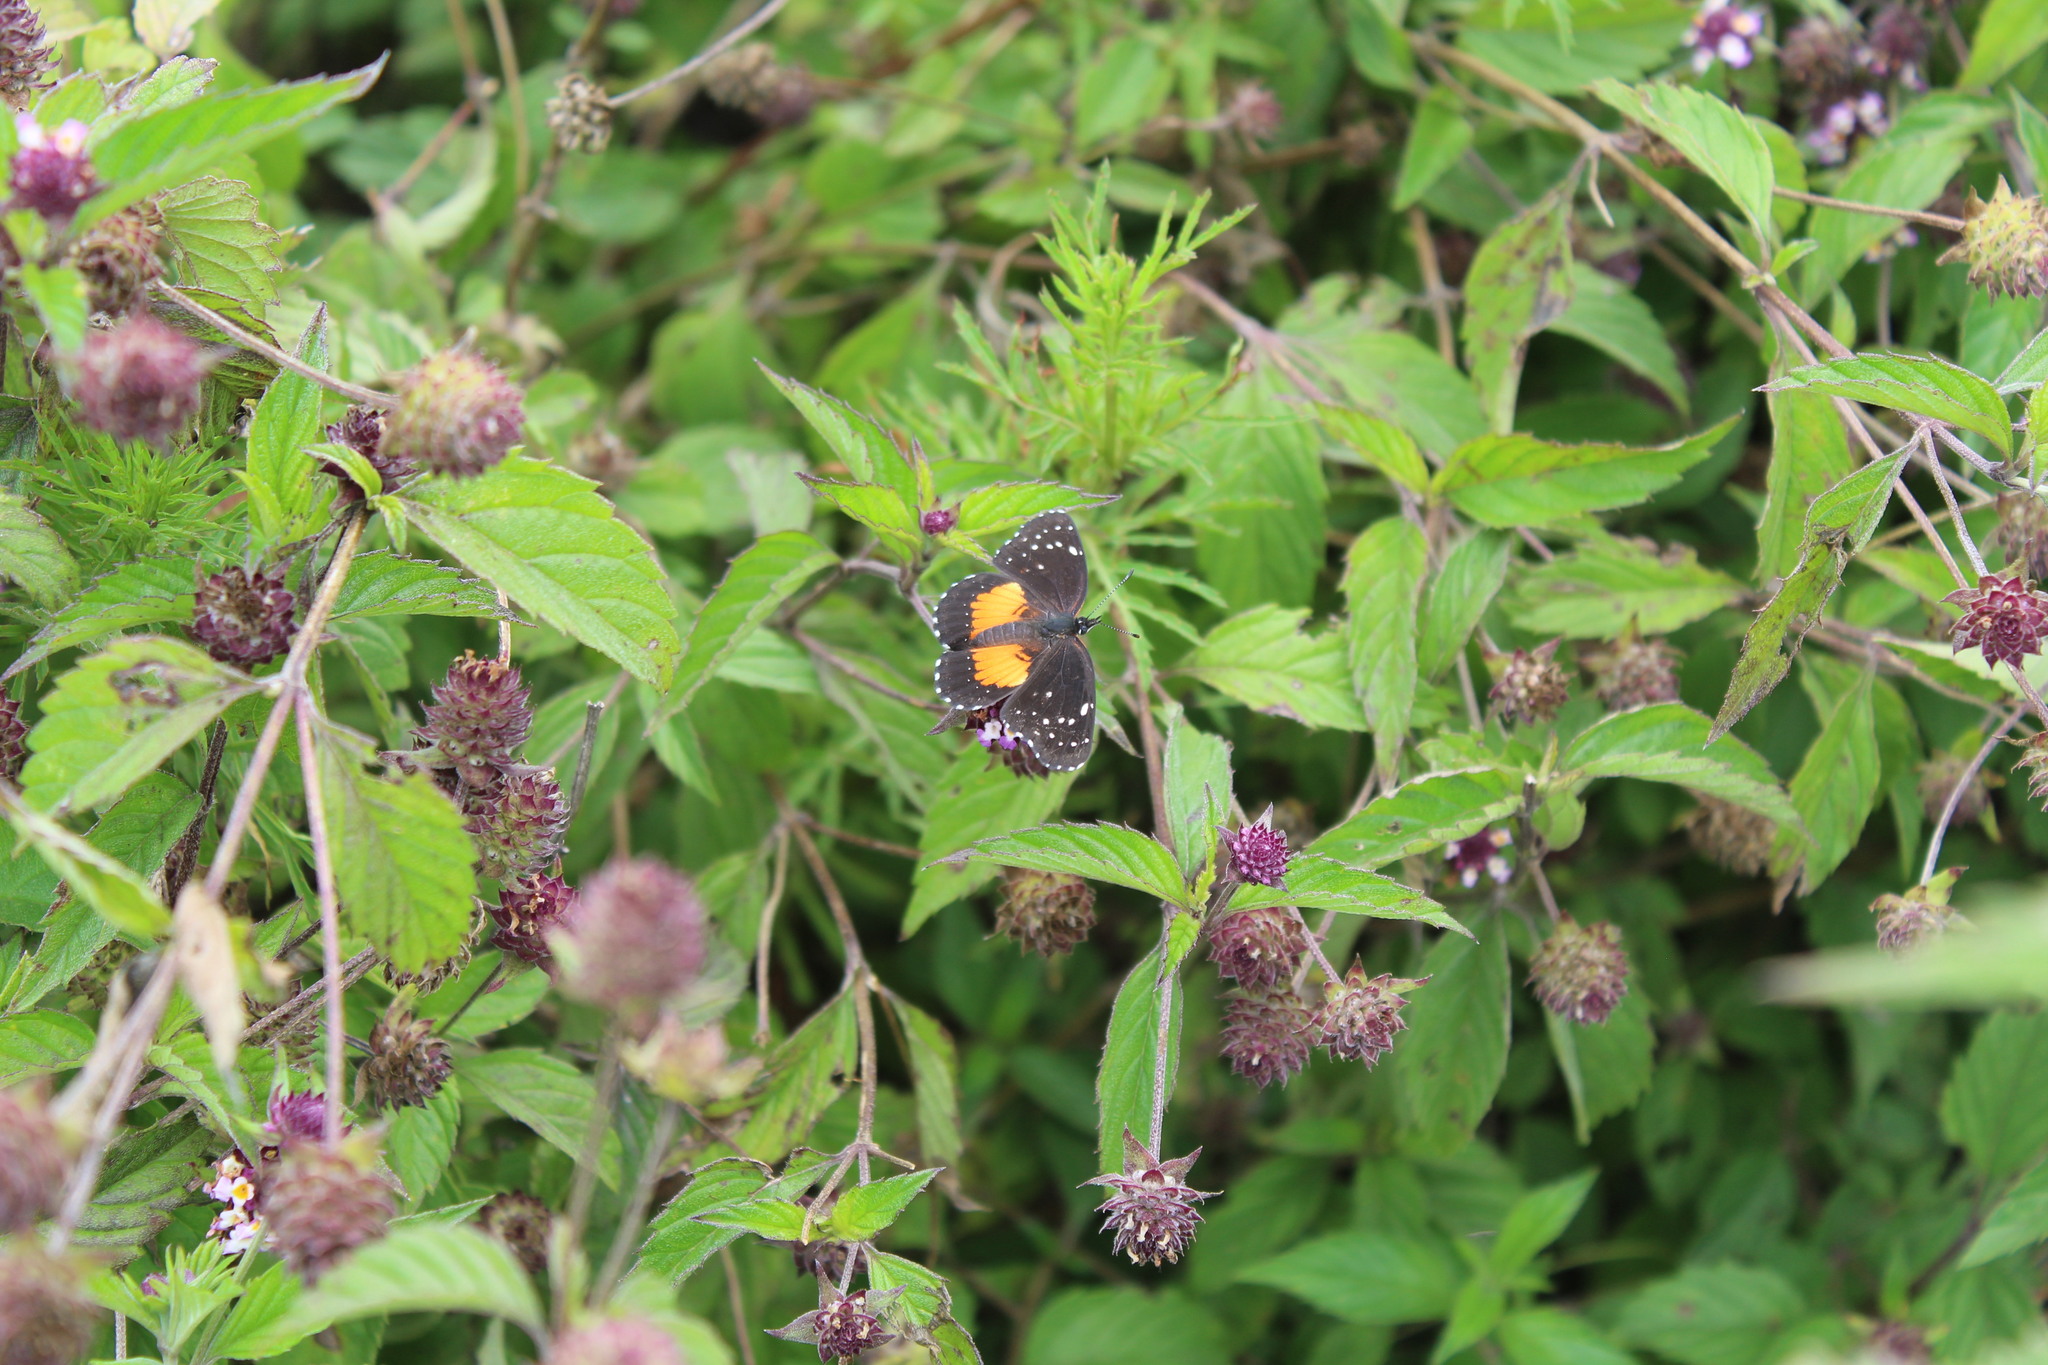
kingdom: Animalia
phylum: Arthropoda
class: Insecta
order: Lepidoptera
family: Nymphalidae
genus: Chlosyne
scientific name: Chlosyne lacinia
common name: Bordered patch
